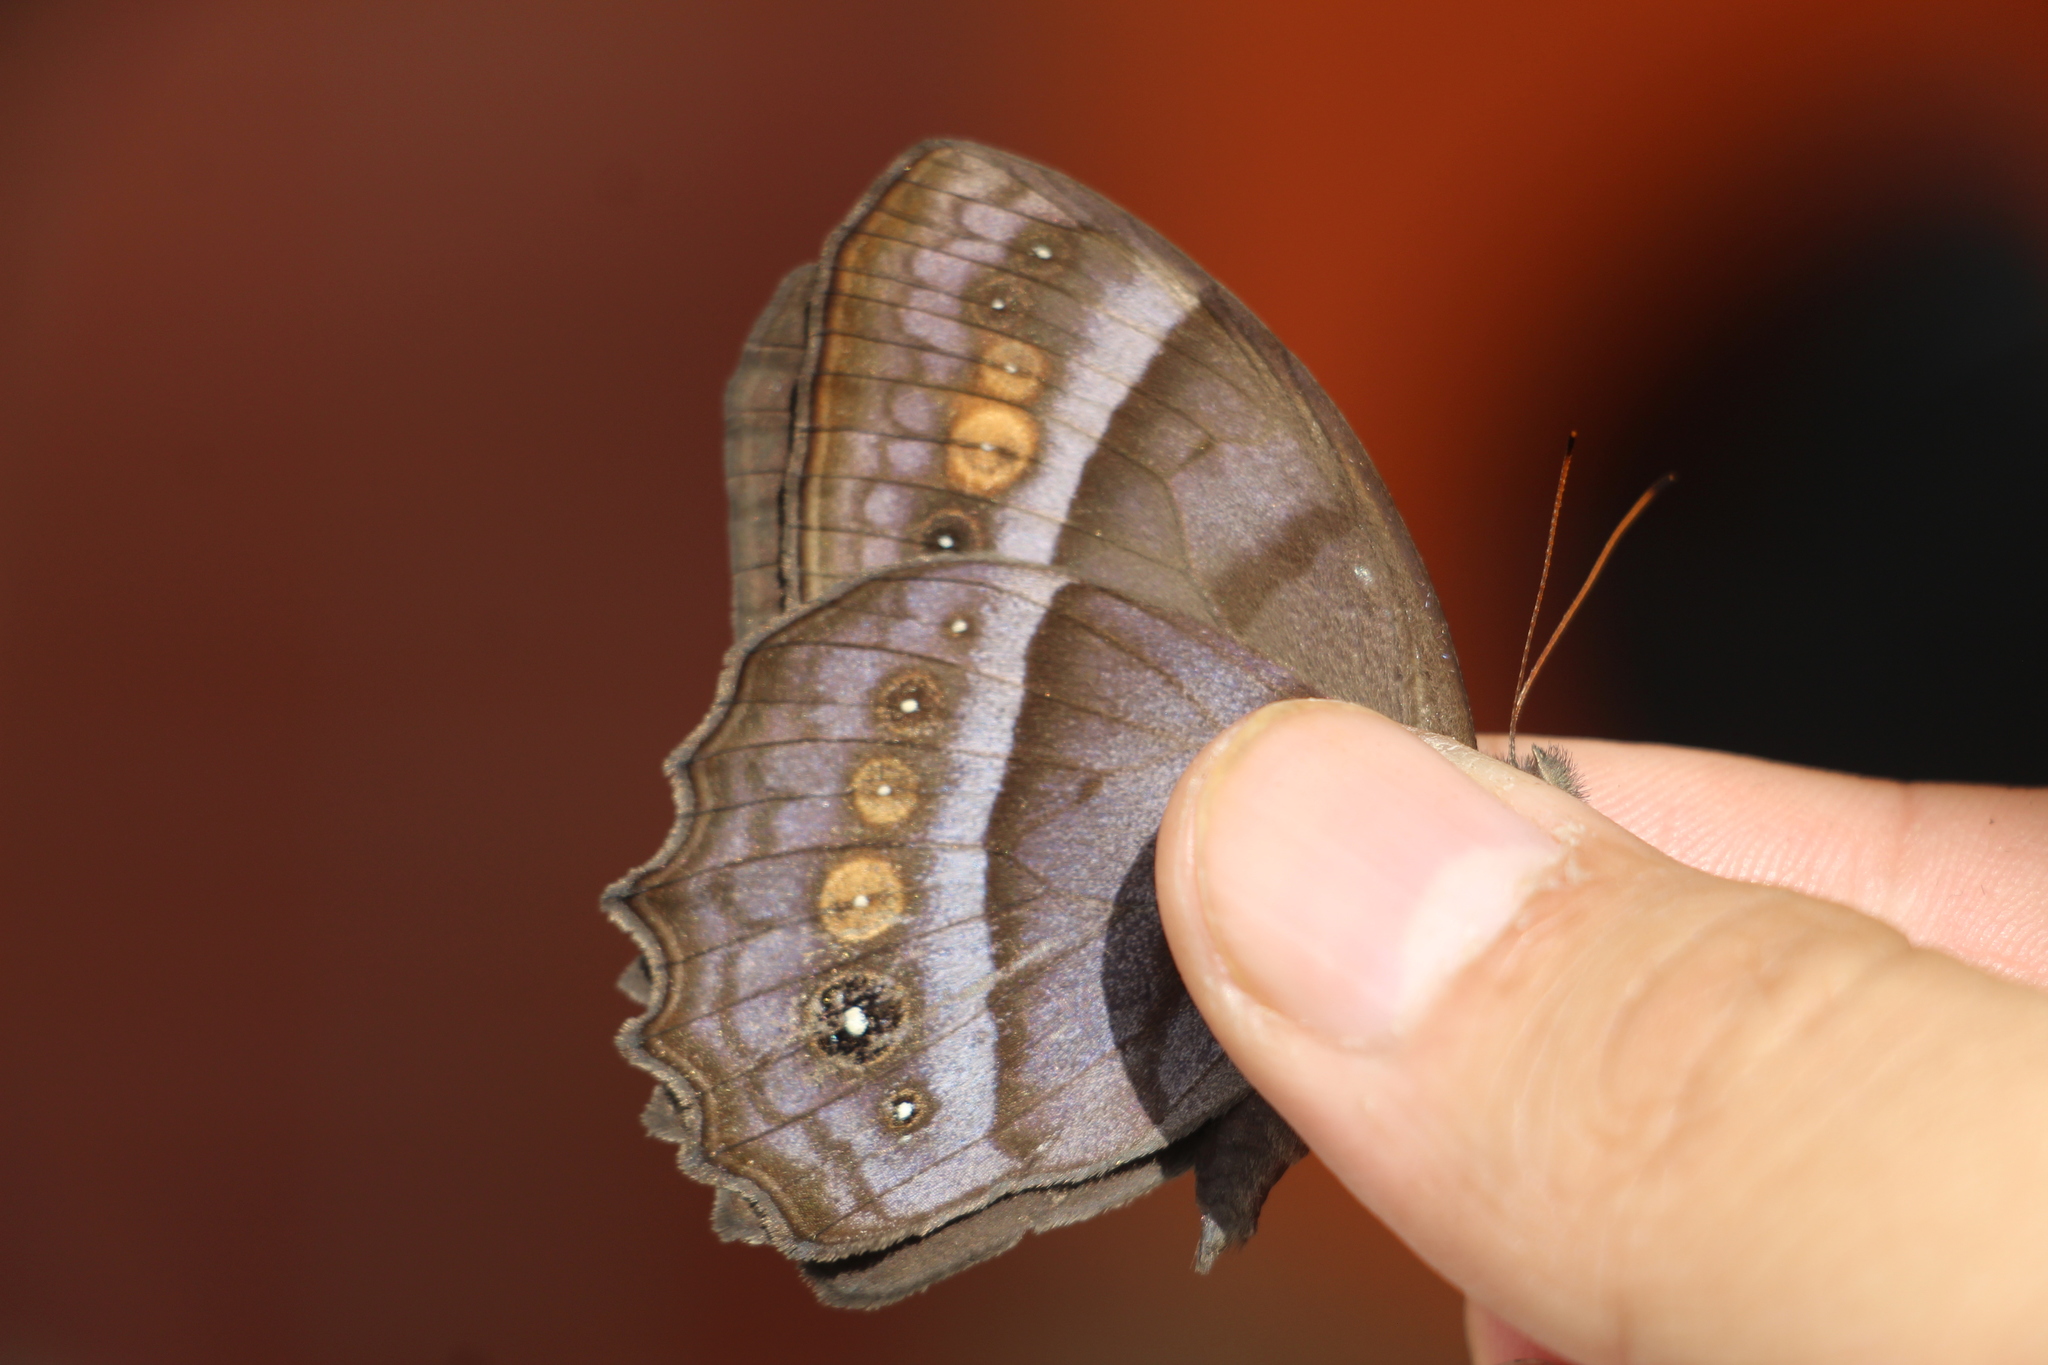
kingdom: Animalia
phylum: Arthropoda
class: Insecta
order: Lepidoptera
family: Nymphalidae
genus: Taygetis
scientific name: Taygetis thamyra
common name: Thamyra satyr
